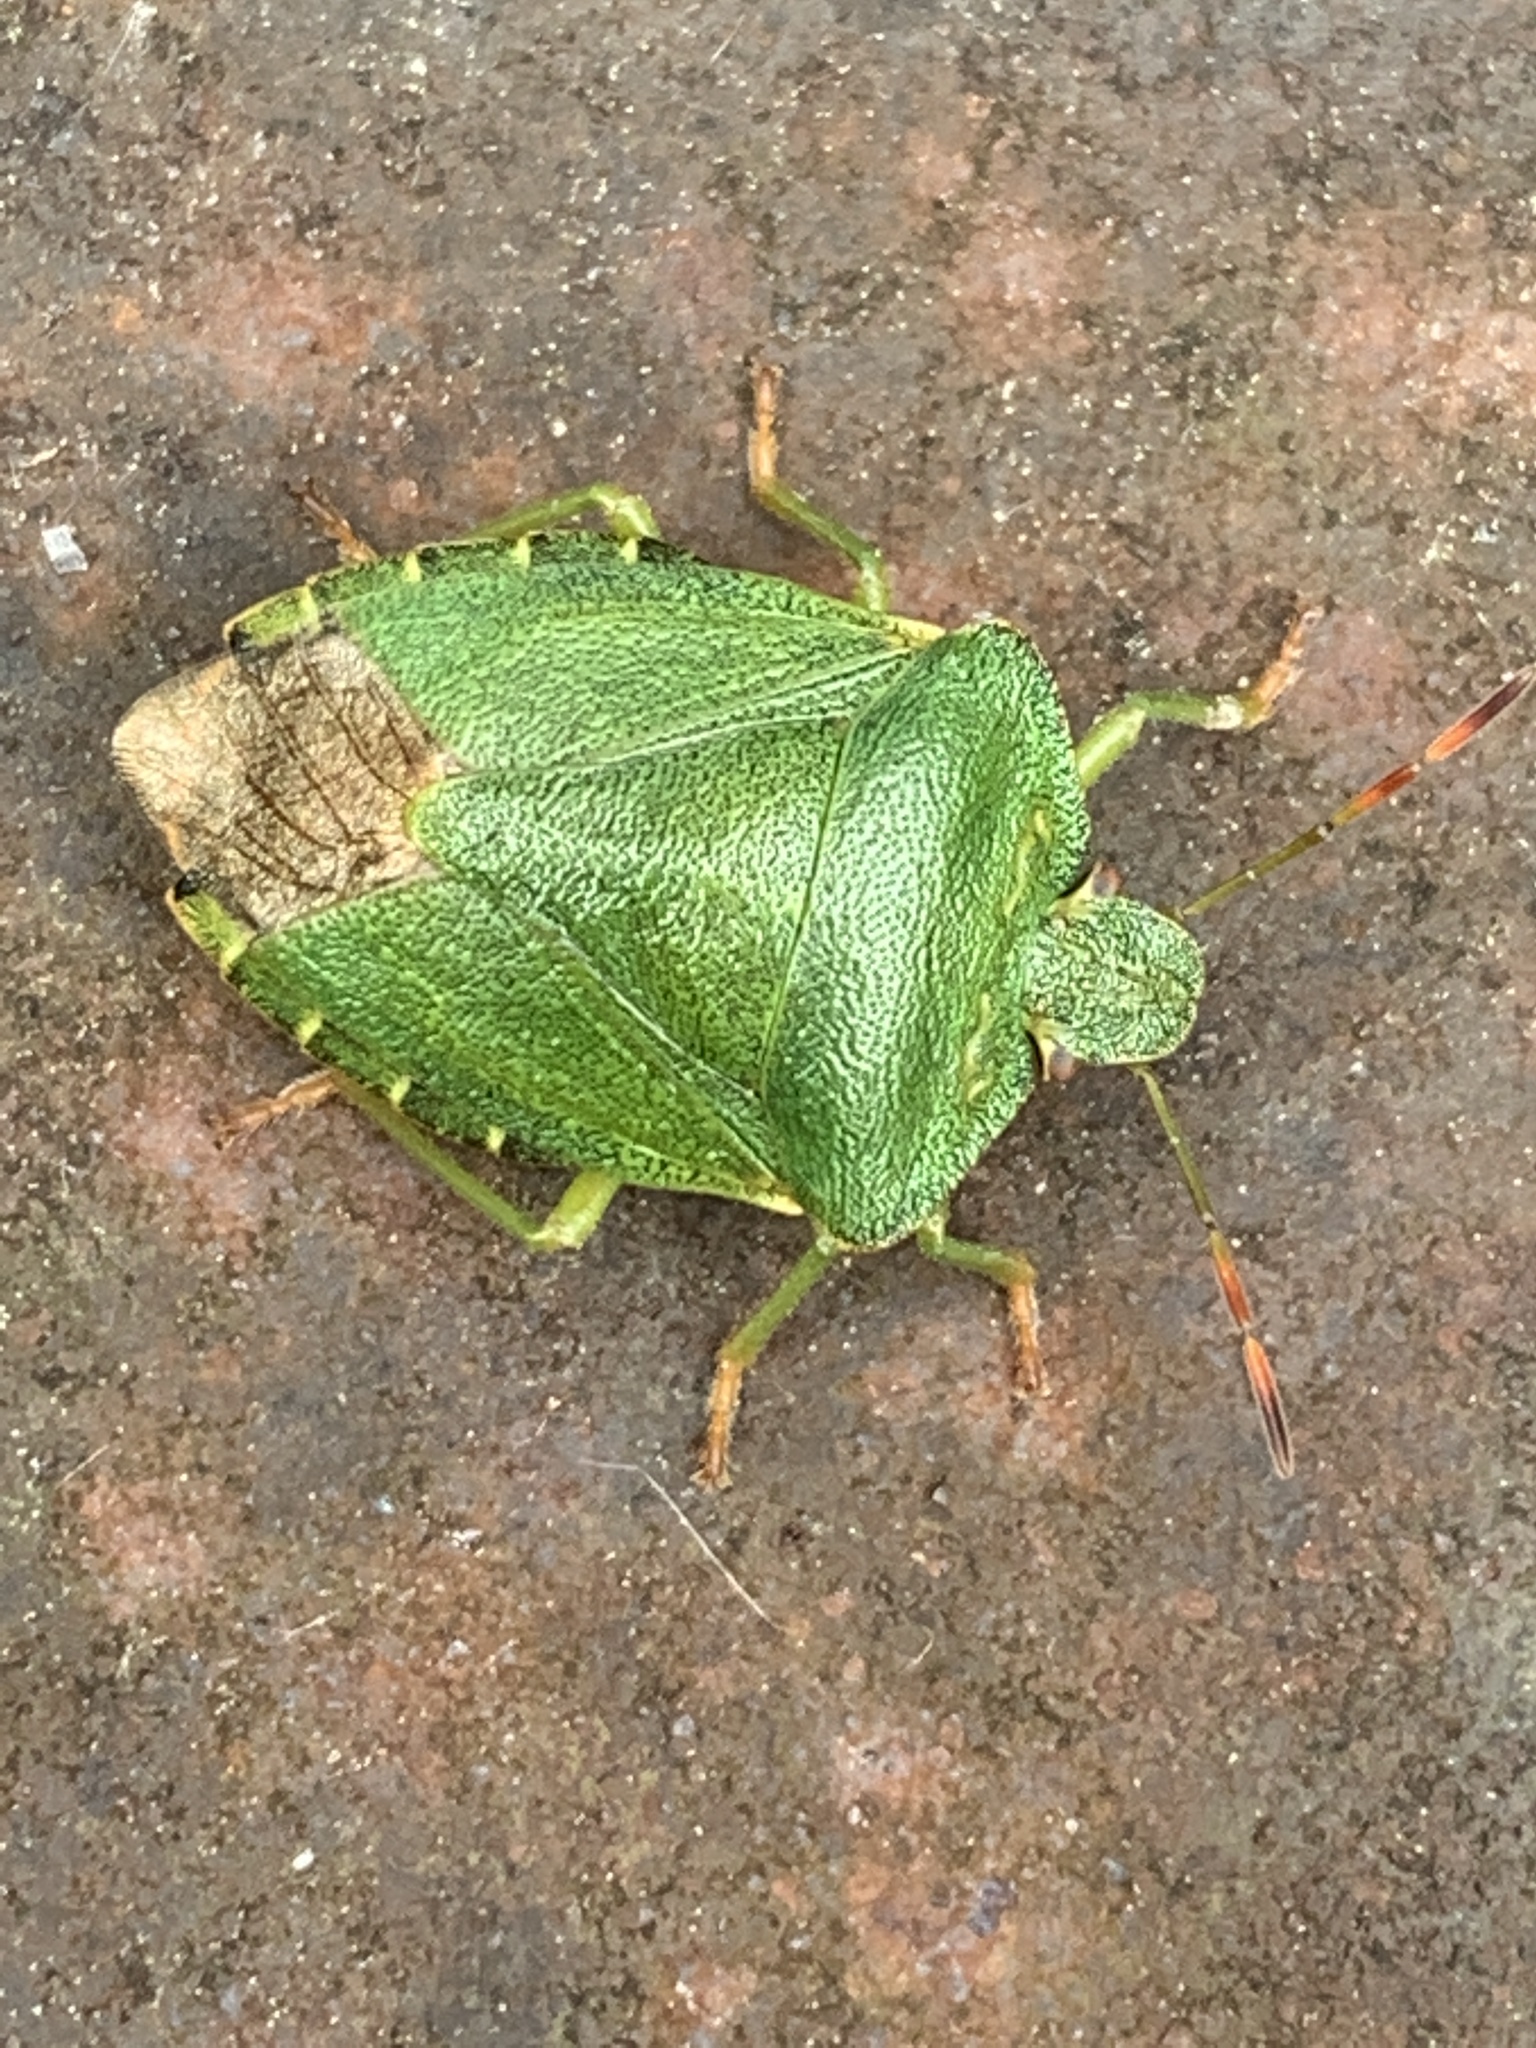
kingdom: Animalia
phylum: Arthropoda
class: Insecta
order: Hemiptera
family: Pentatomidae
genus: Palomena
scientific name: Palomena prasina
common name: Green shieldbug
